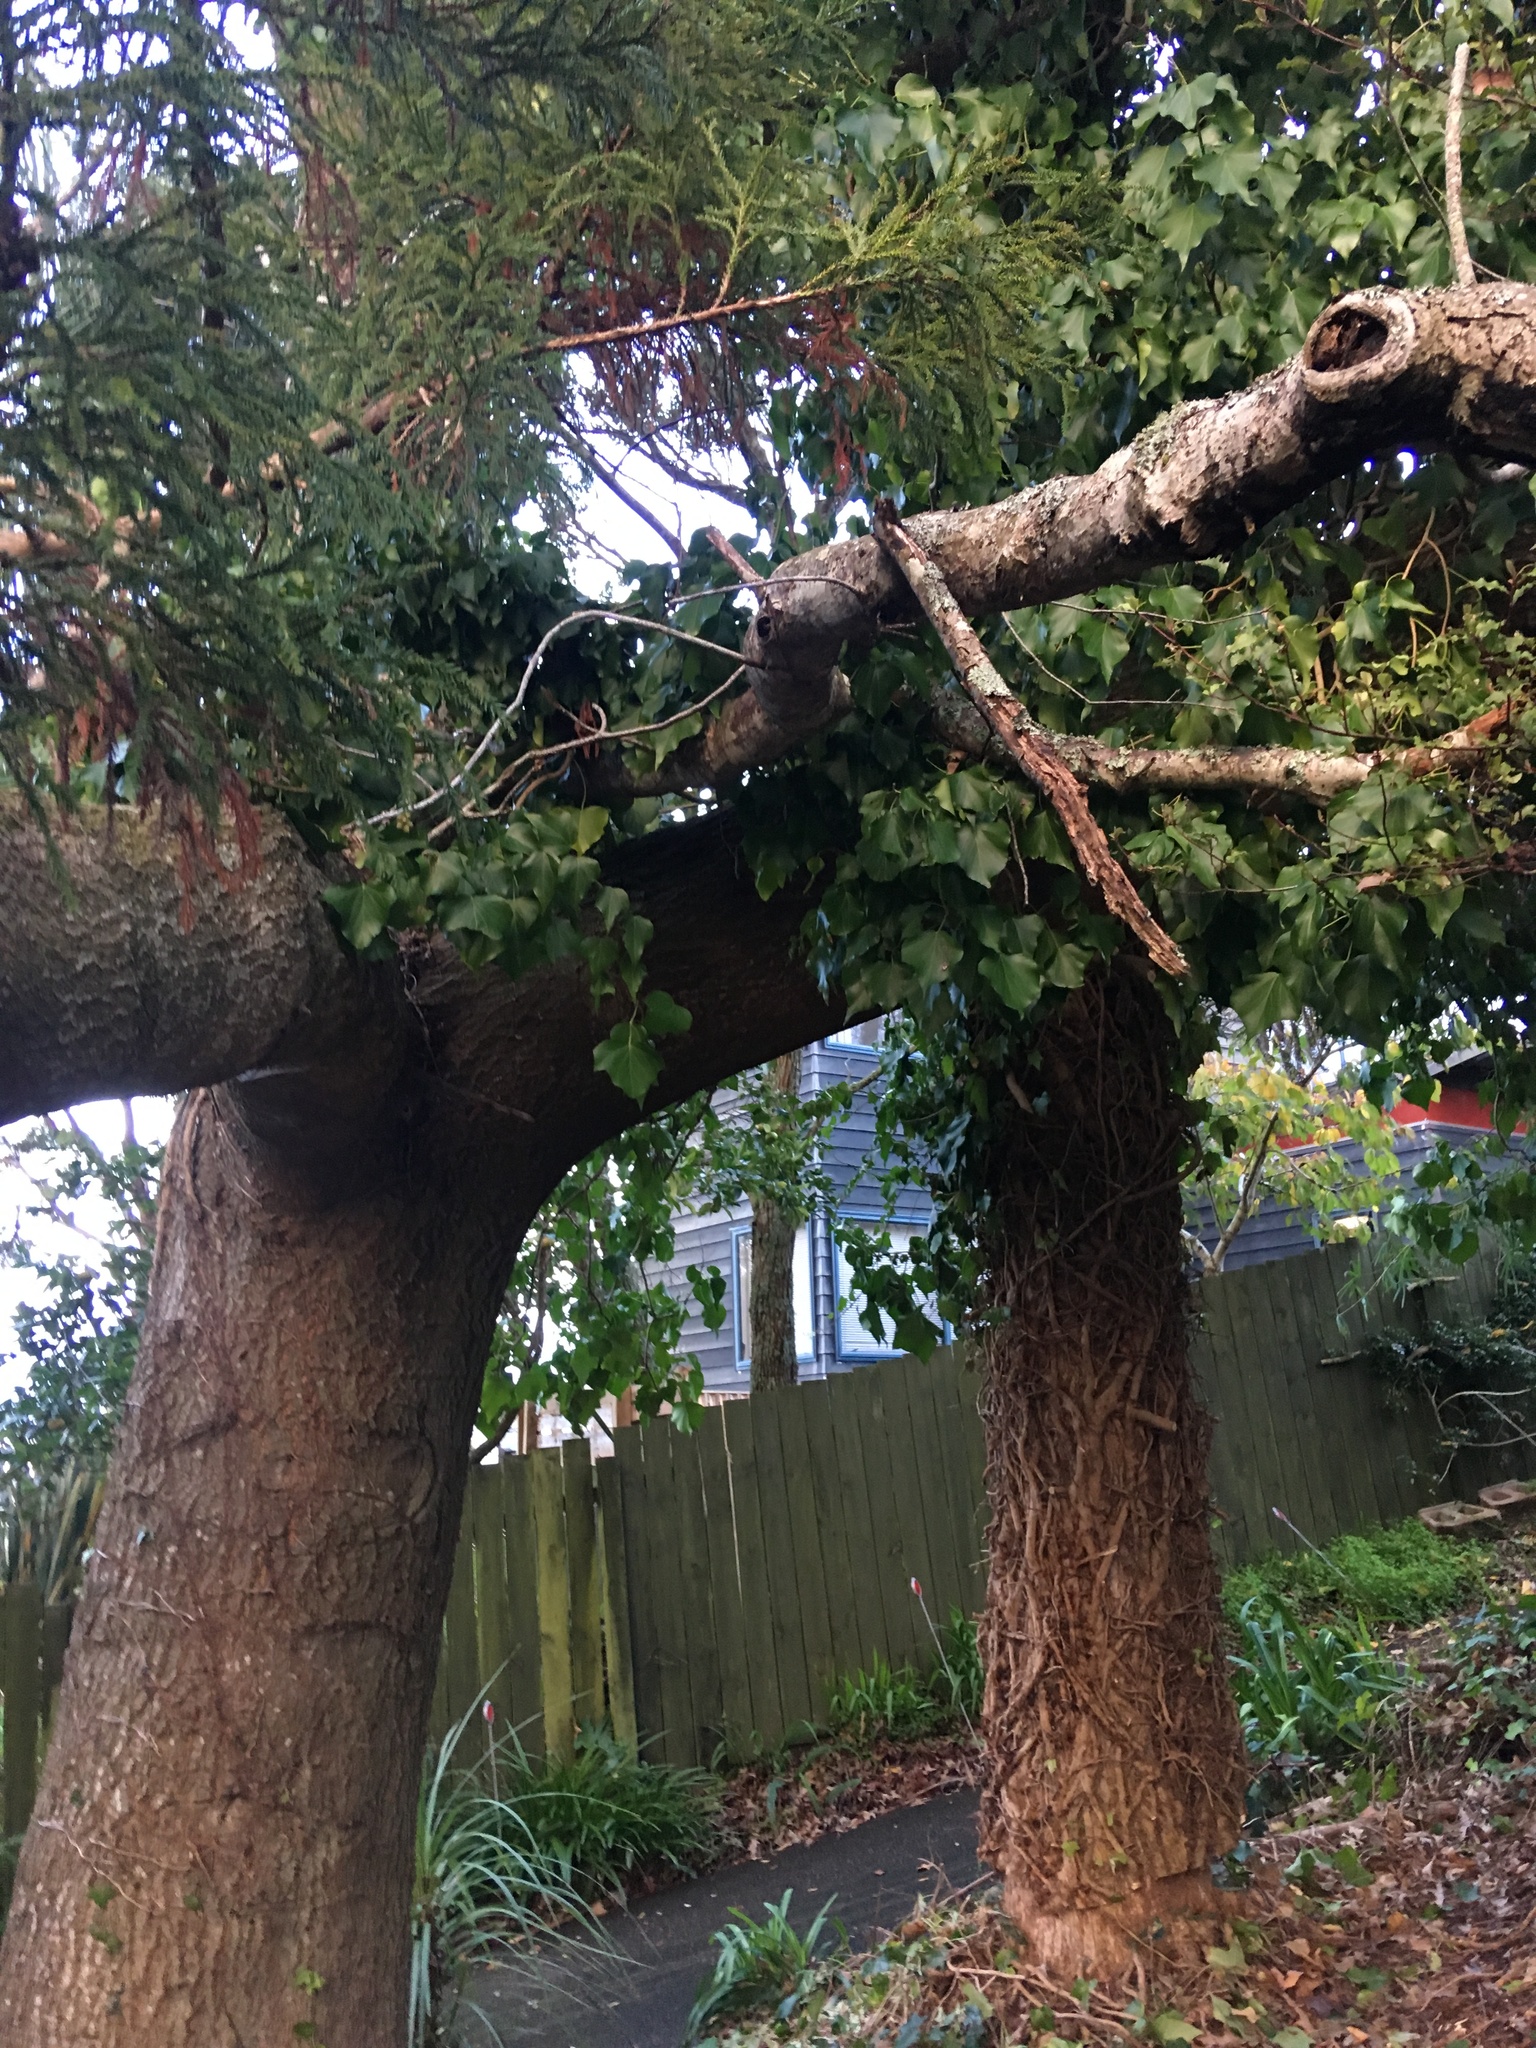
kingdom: Plantae
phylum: Tracheophyta
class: Magnoliopsida
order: Apiales
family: Araliaceae
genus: Hedera
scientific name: Hedera helix
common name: Ivy
